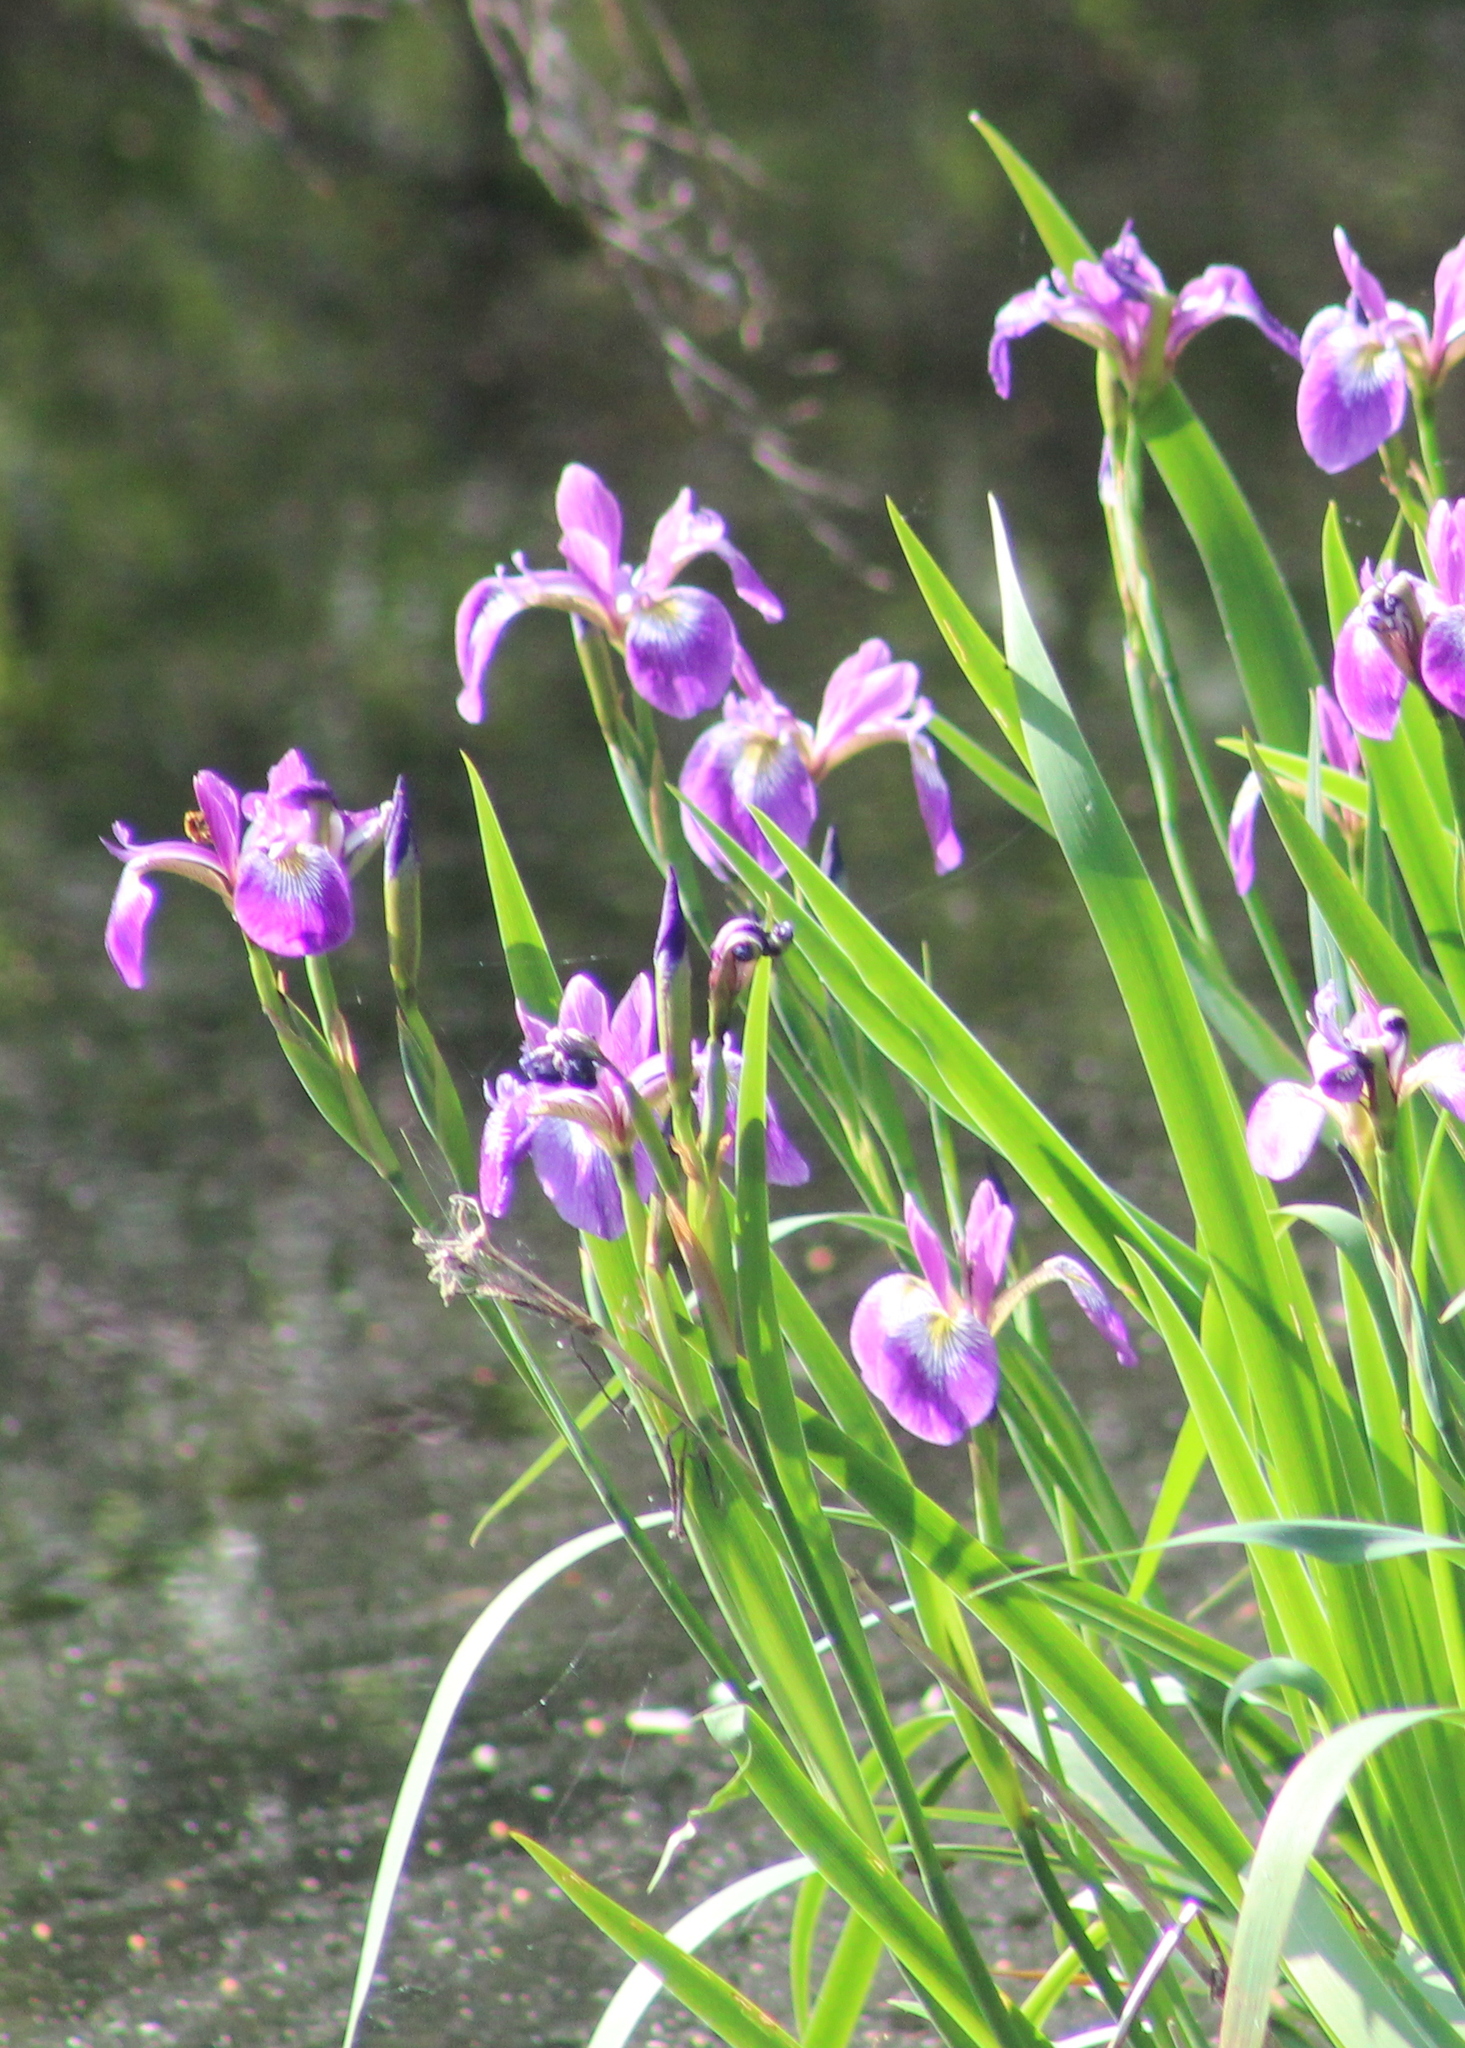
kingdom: Plantae
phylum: Tracheophyta
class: Liliopsida
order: Asparagales
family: Iridaceae
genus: Iris
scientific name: Iris versicolor
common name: Purple iris
